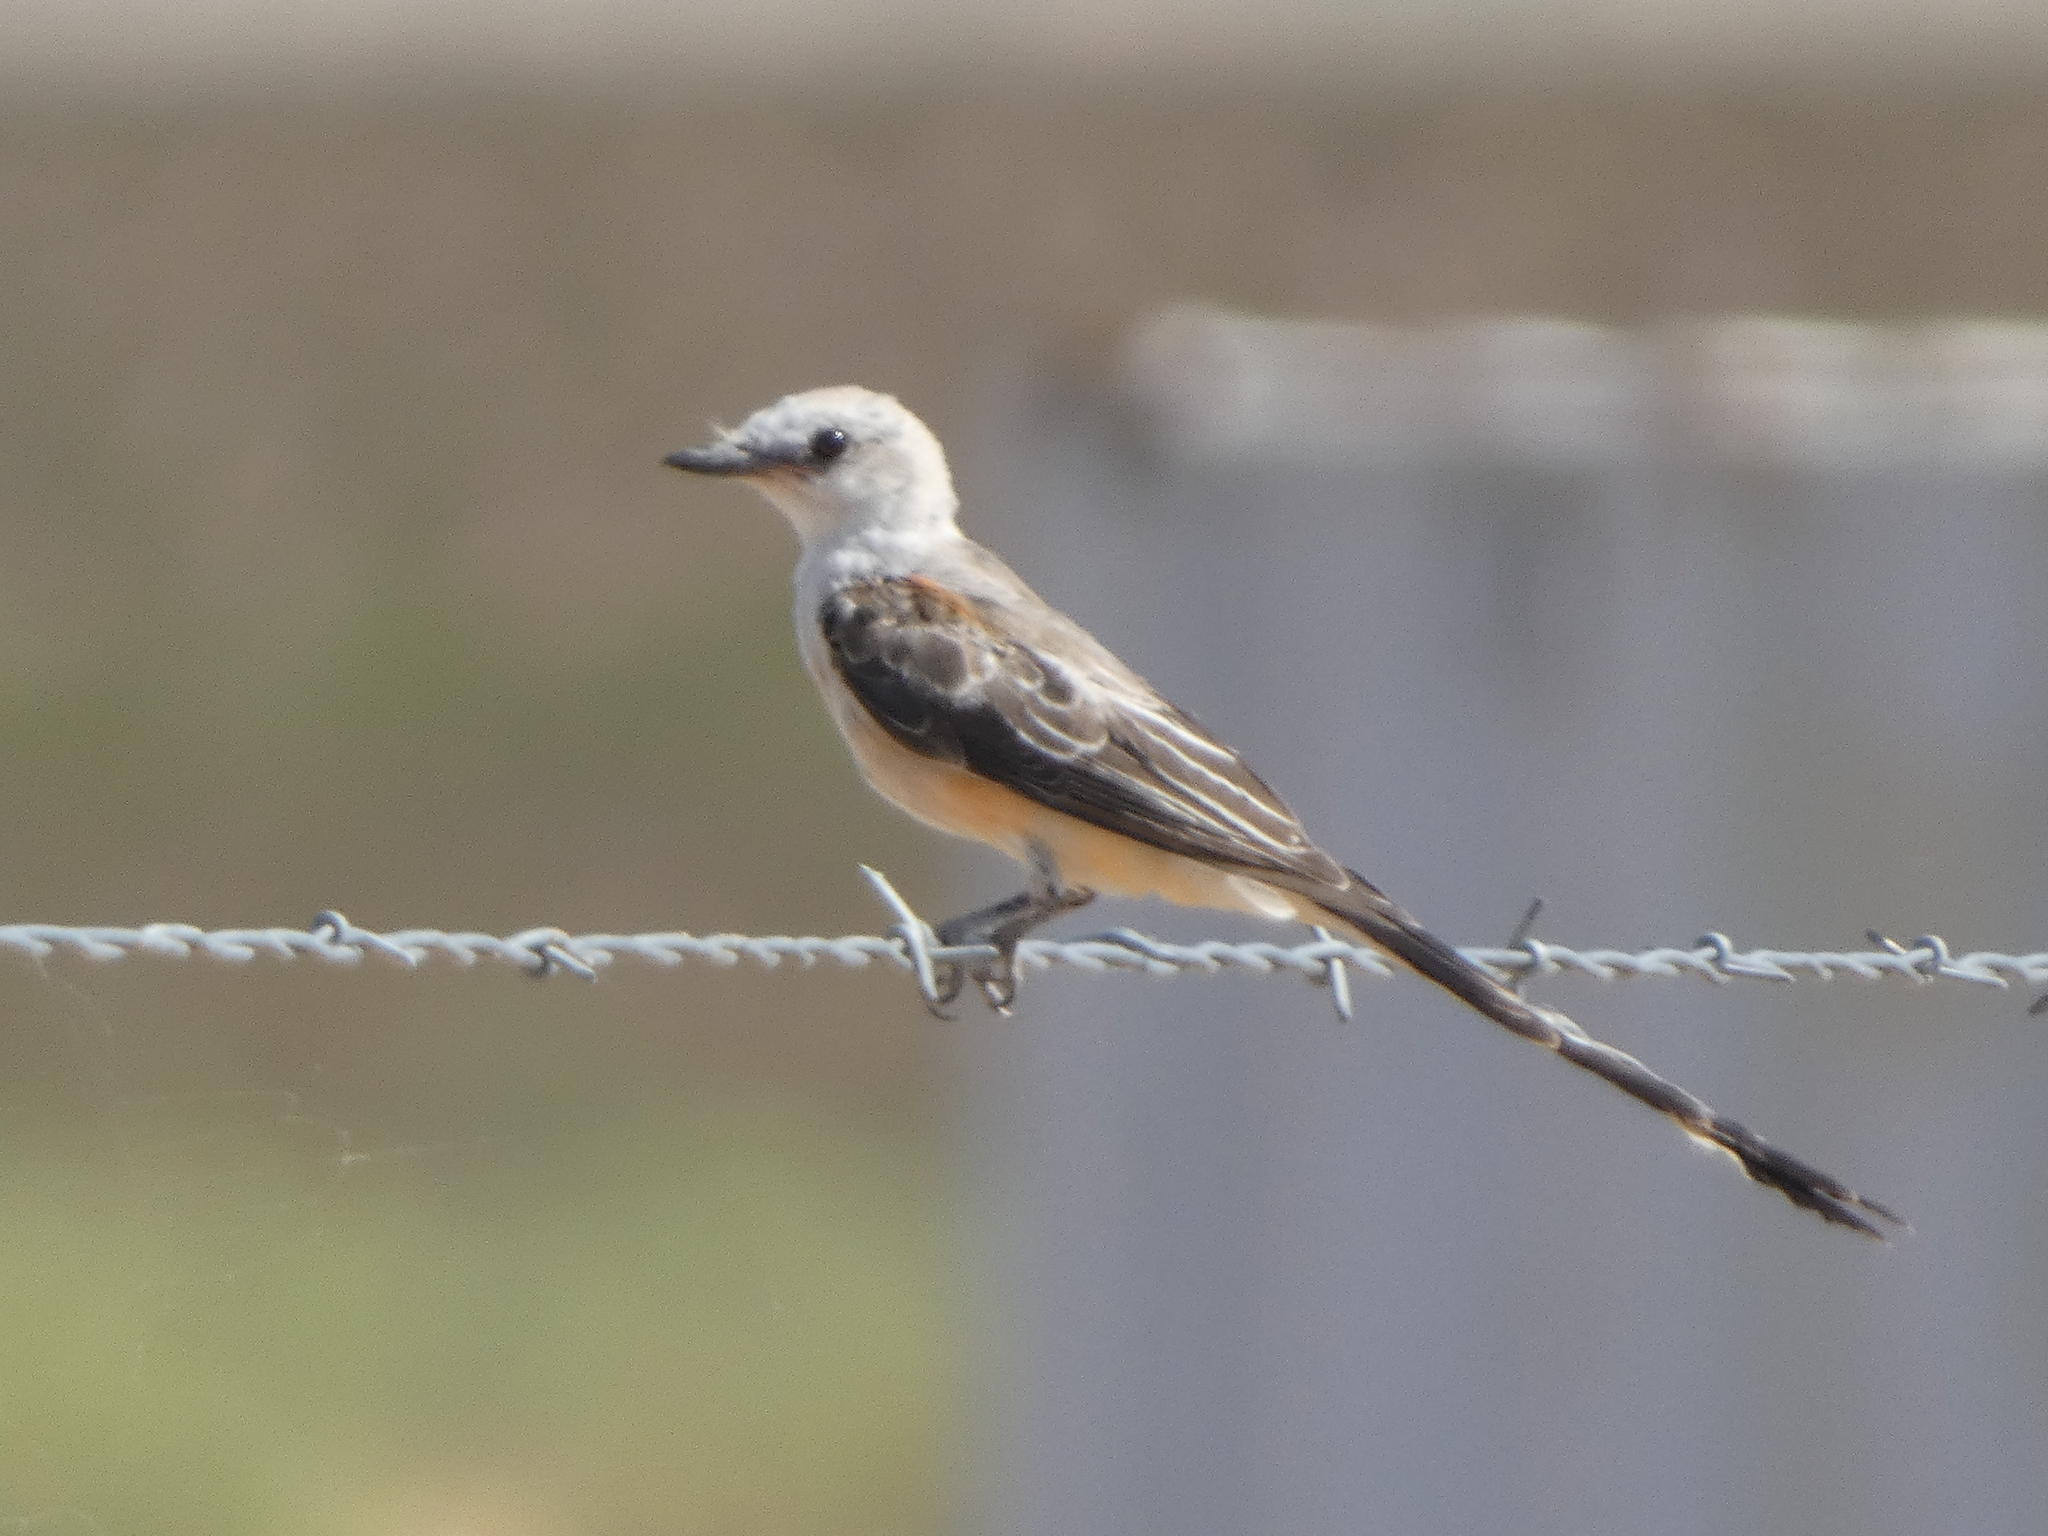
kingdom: Animalia
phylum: Chordata
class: Aves
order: Passeriformes
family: Tyrannidae
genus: Tyrannus
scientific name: Tyrannus forficatus
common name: Scissor-tailed flycatcher
